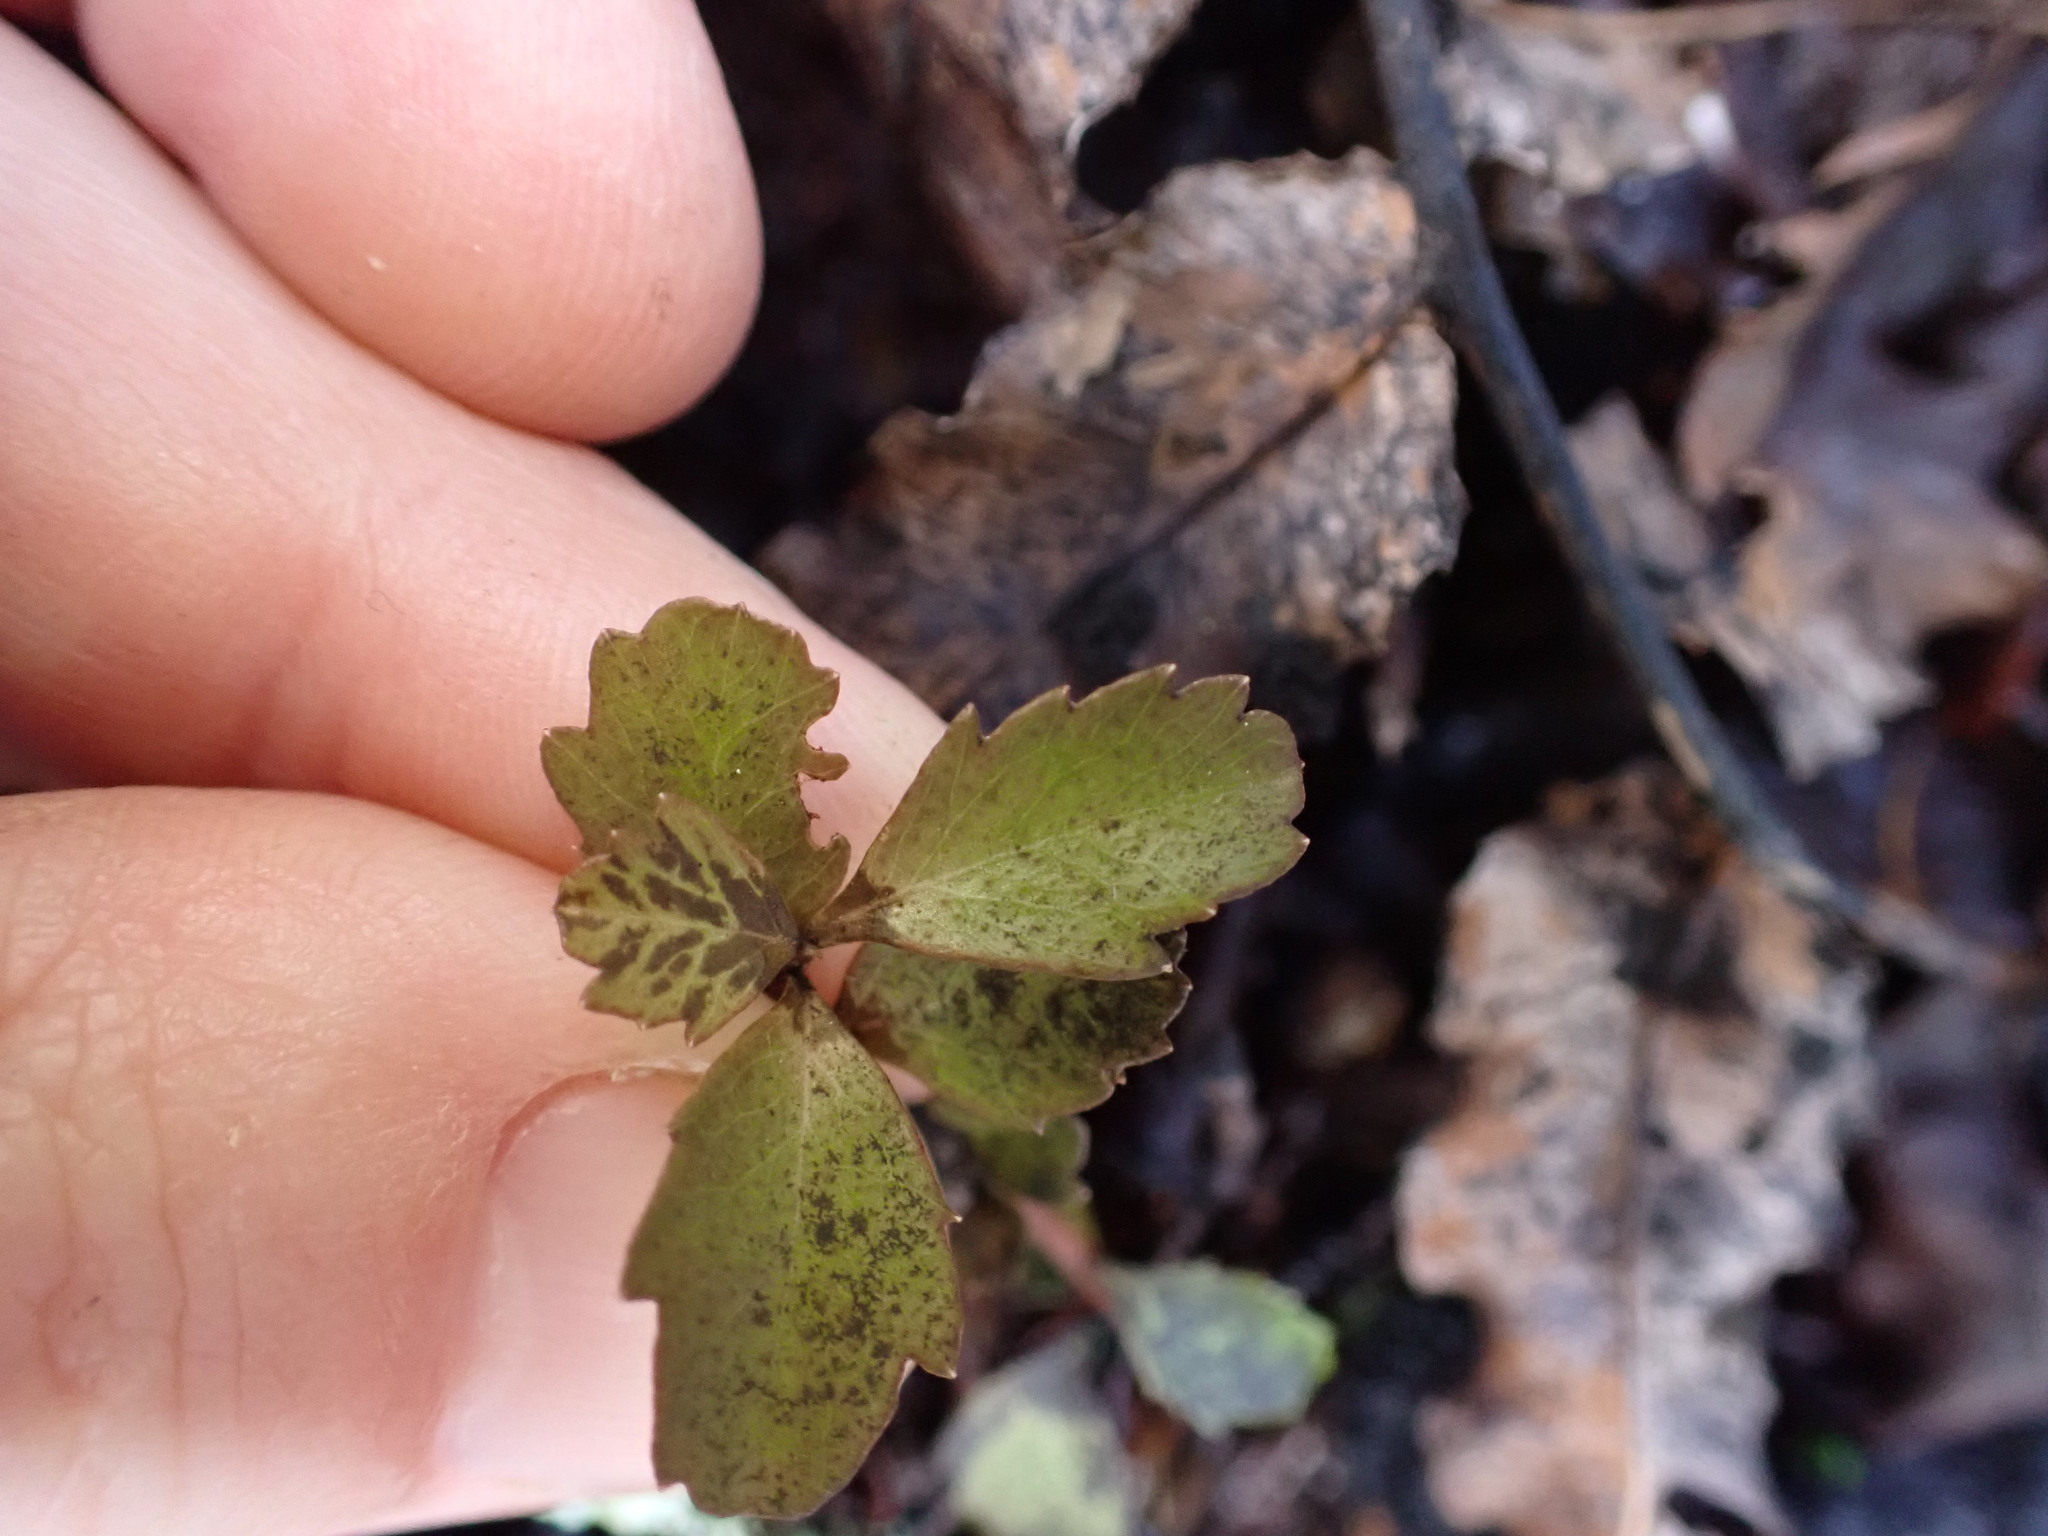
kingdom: Plantae
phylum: Tracheophyta
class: Magnoliopsida
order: Ericales
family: Primulaceae
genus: Myrsine
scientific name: Myrsine divaricata
